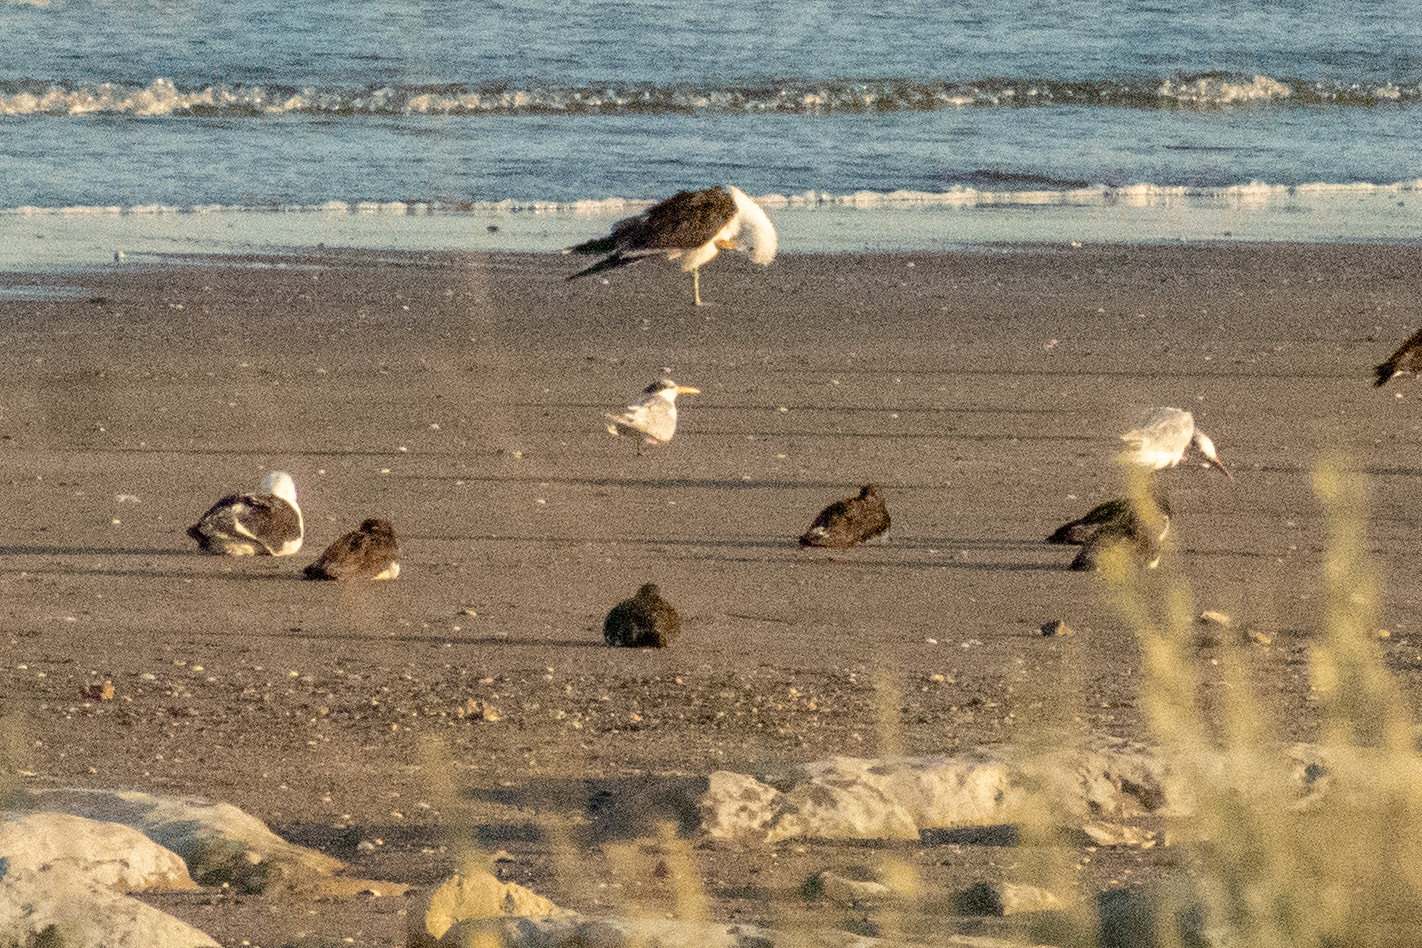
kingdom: Animalia
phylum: Chordata
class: Aves
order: Charadriiformes
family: Laridae
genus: Thalasseus
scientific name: Thalasseus sandvicensis
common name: Sandwich tern
